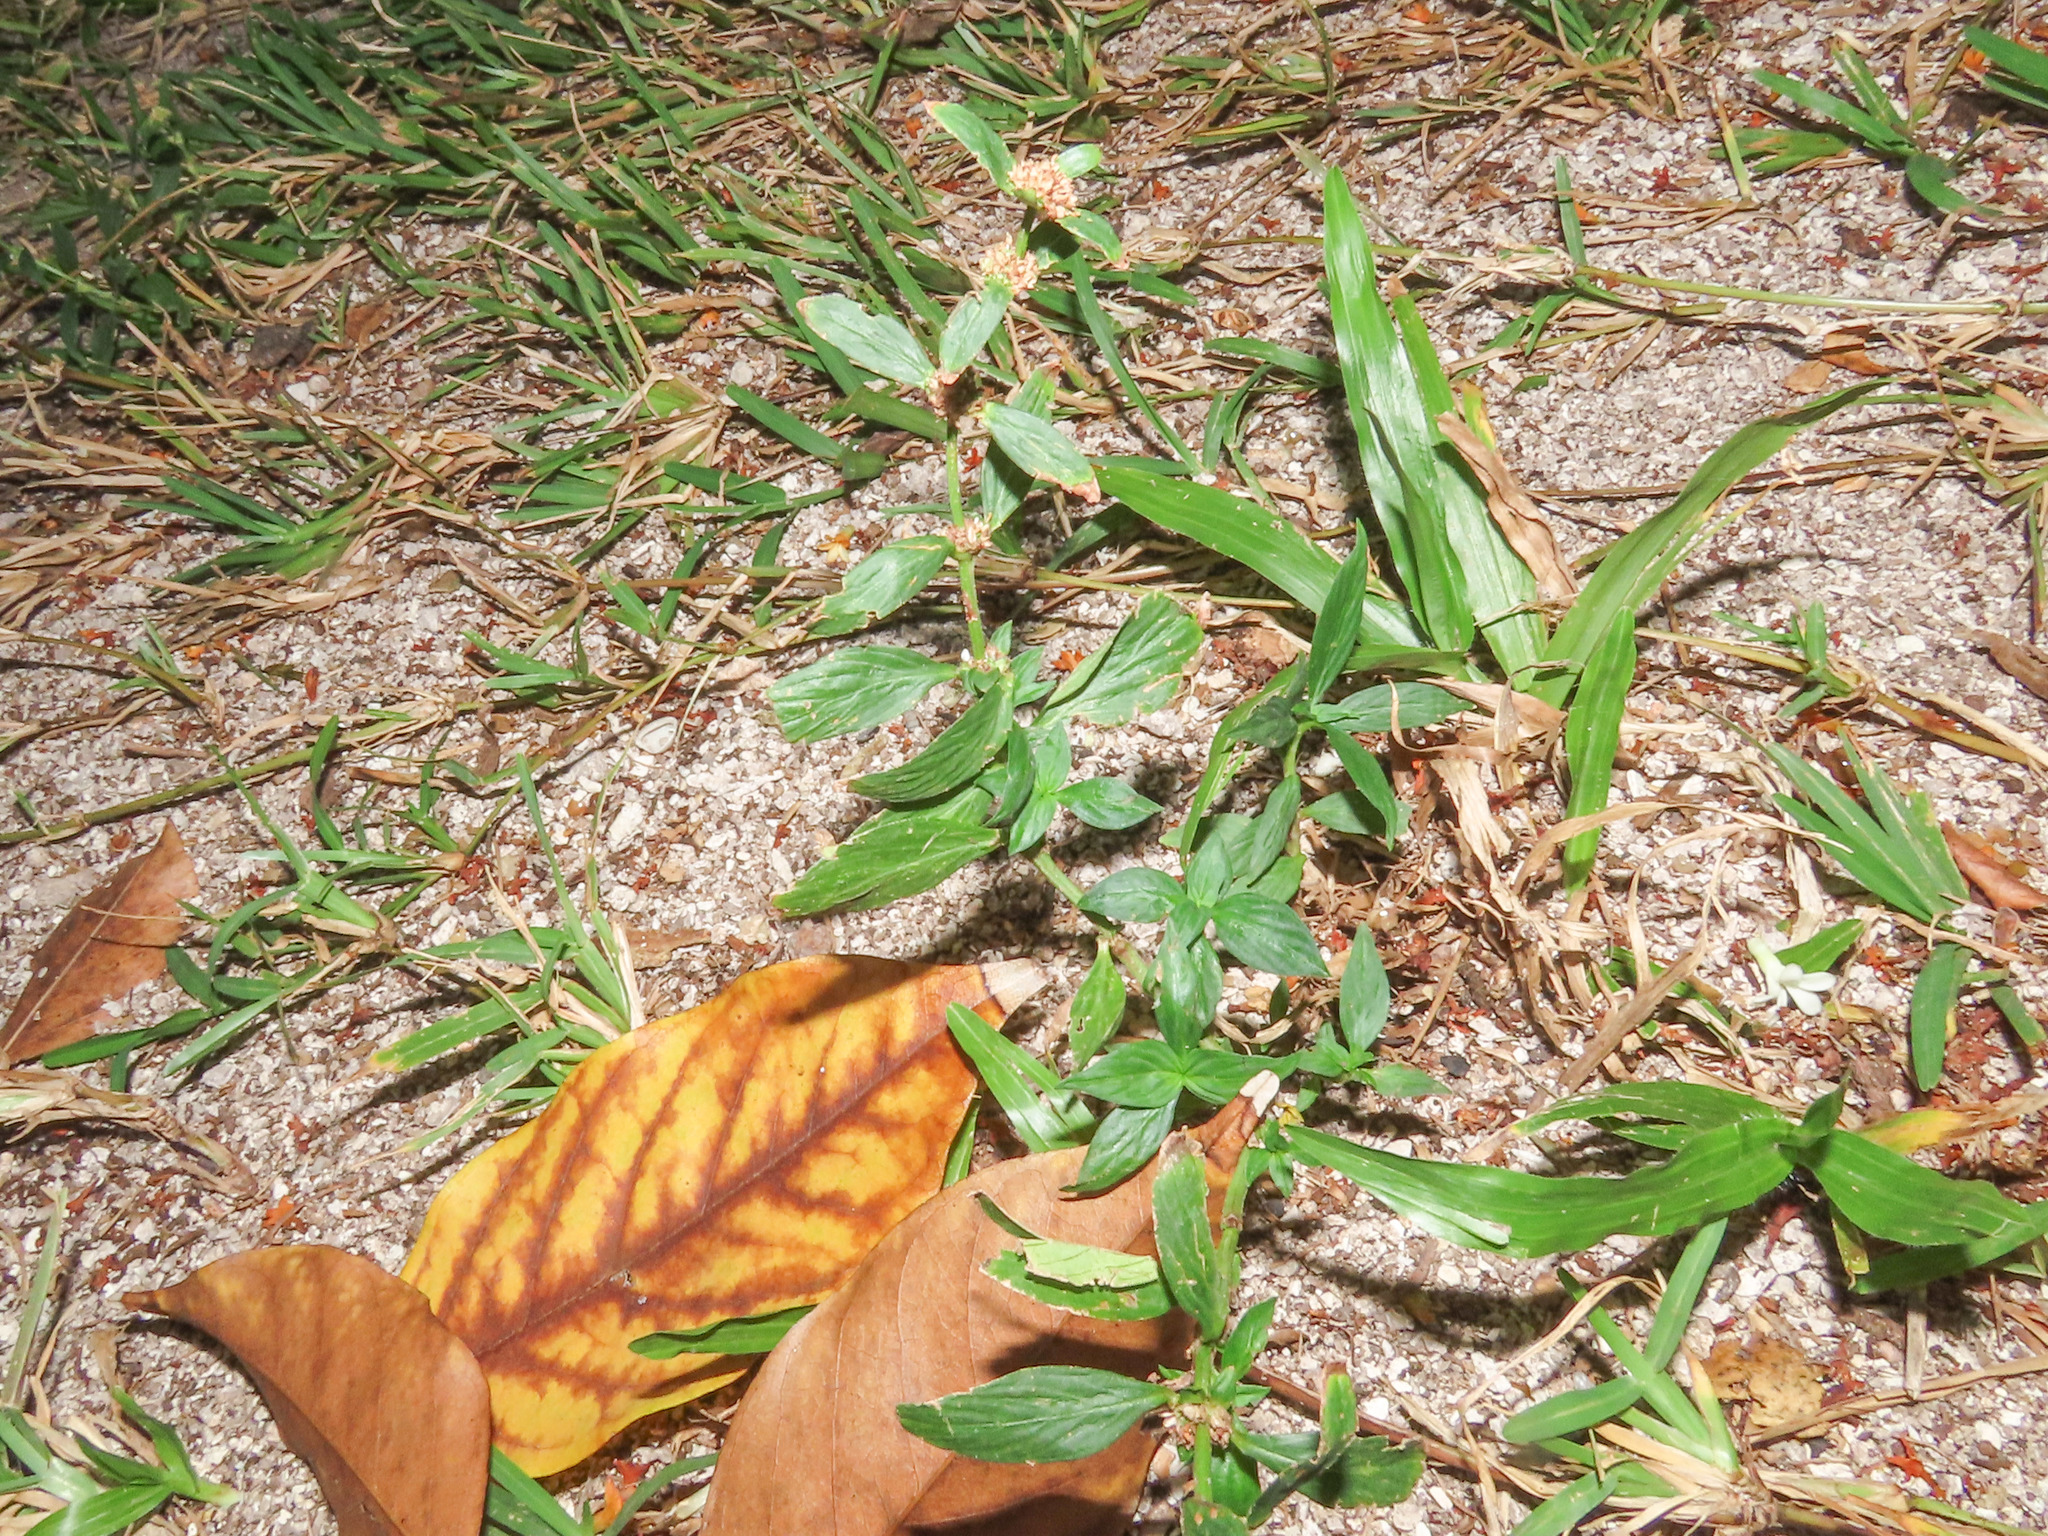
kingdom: Plantae
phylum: Tracheophyta
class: Magnoliopsida
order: Gentianales
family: Rubiaceae
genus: Spermacoce
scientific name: Spermacoce remota
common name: Woodland false buttonweed
